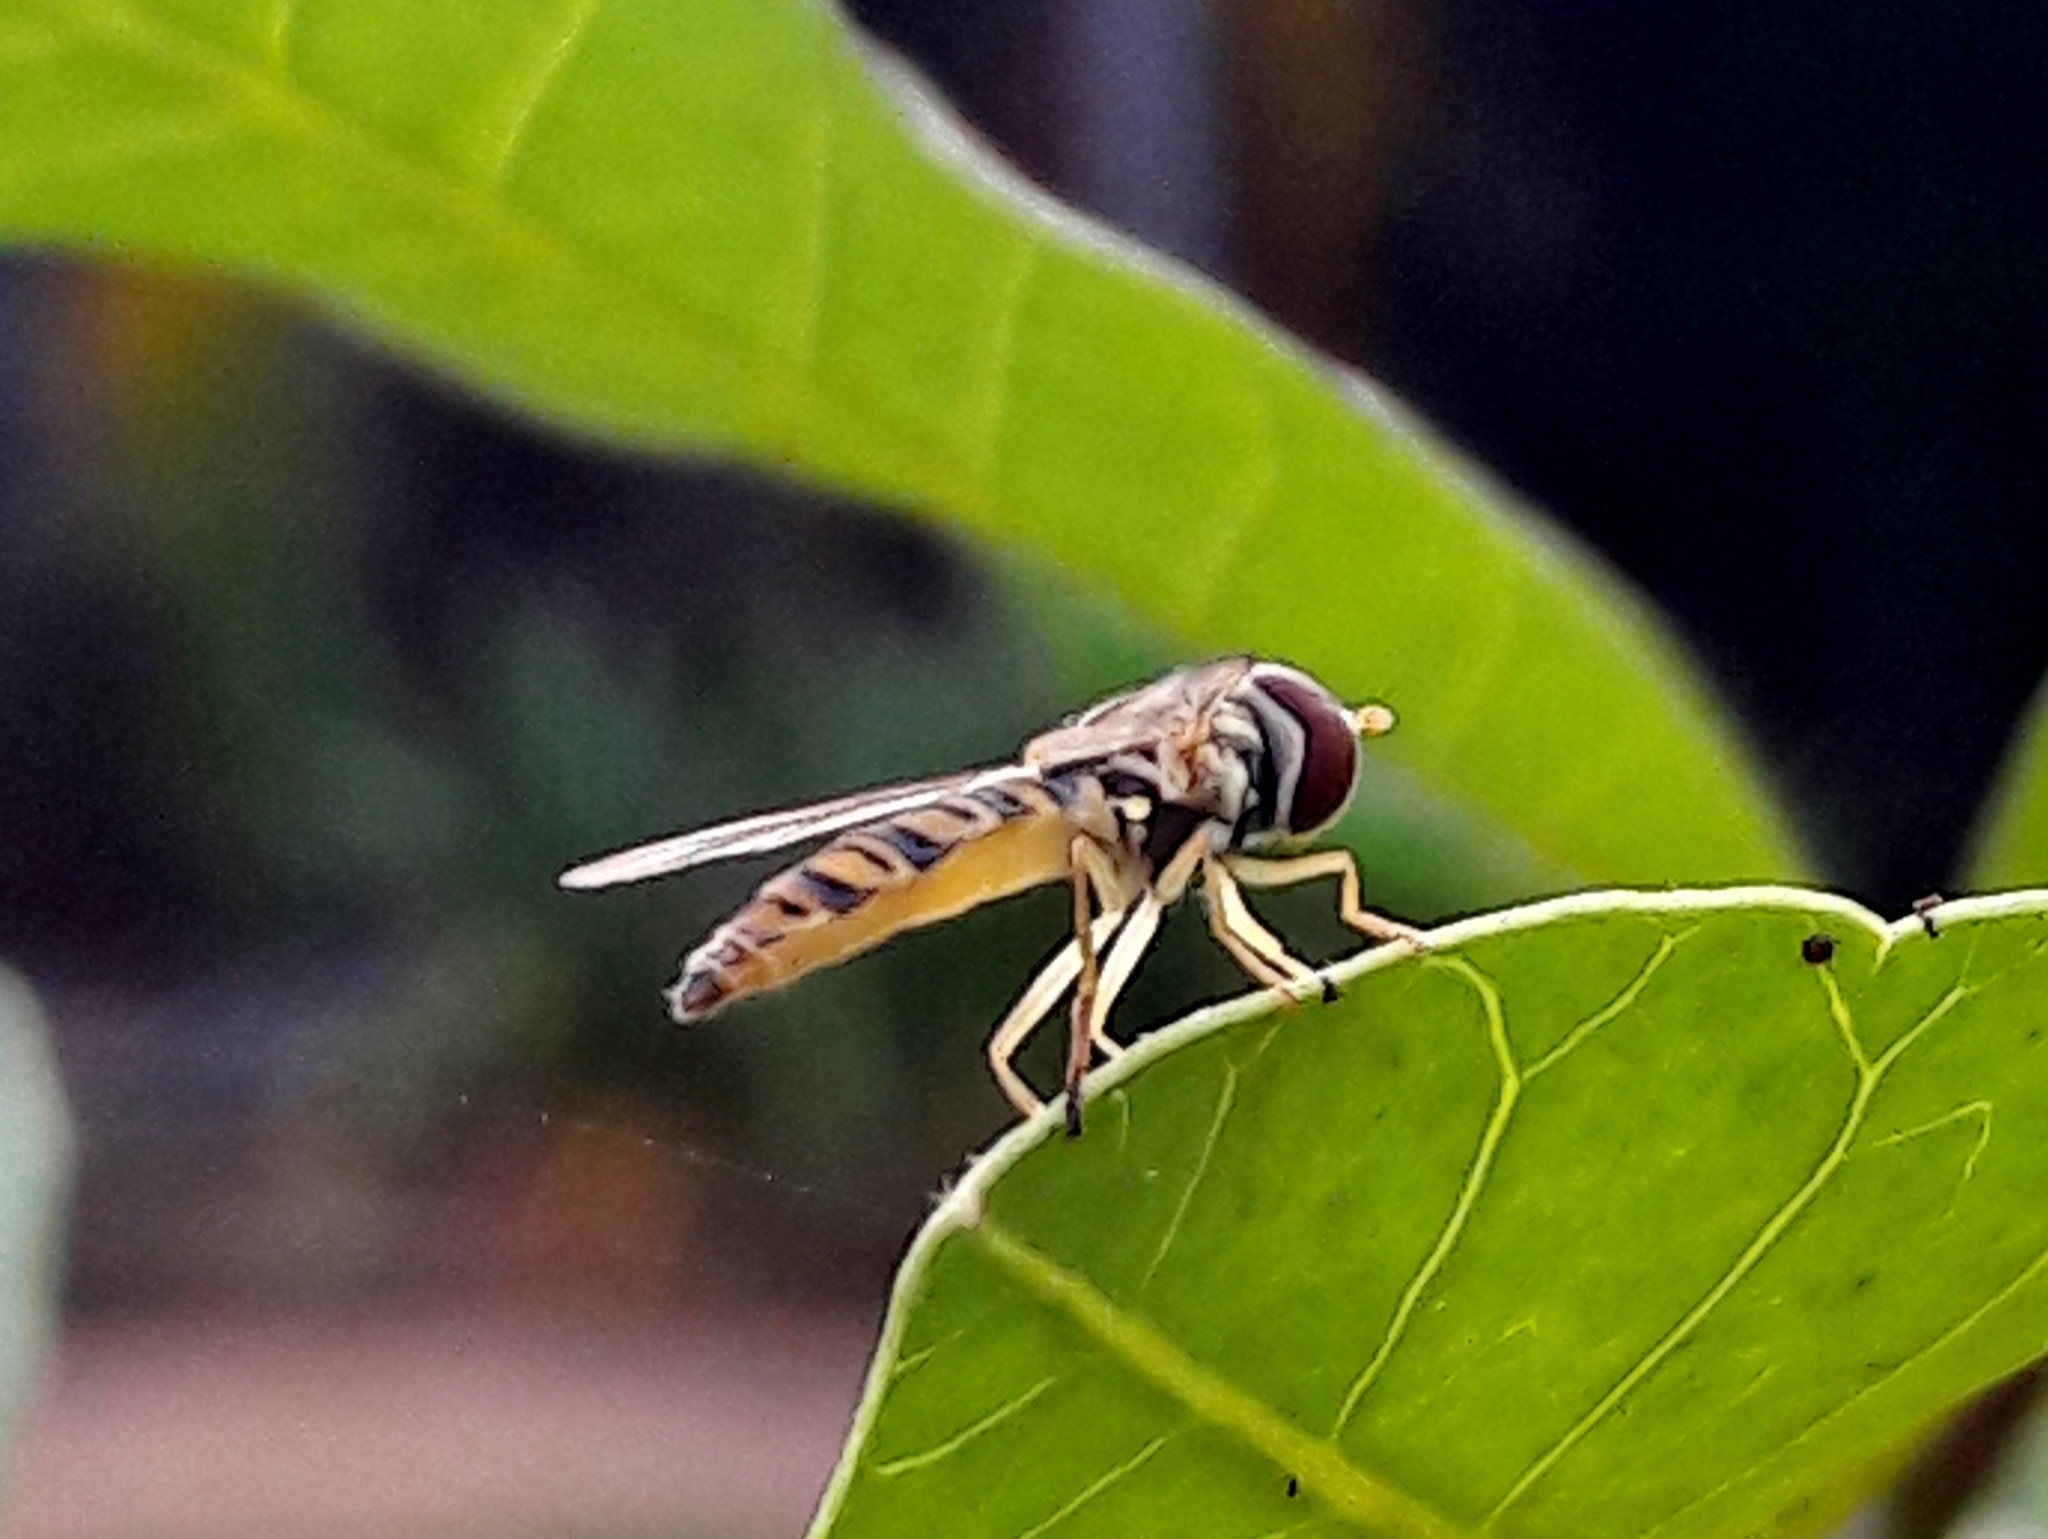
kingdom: Animalia
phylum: Arthropoda
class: Insecta
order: Diptera
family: Syrphidae
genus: Toxomerus
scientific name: Toxomerus politus
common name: Maize calligrapher
